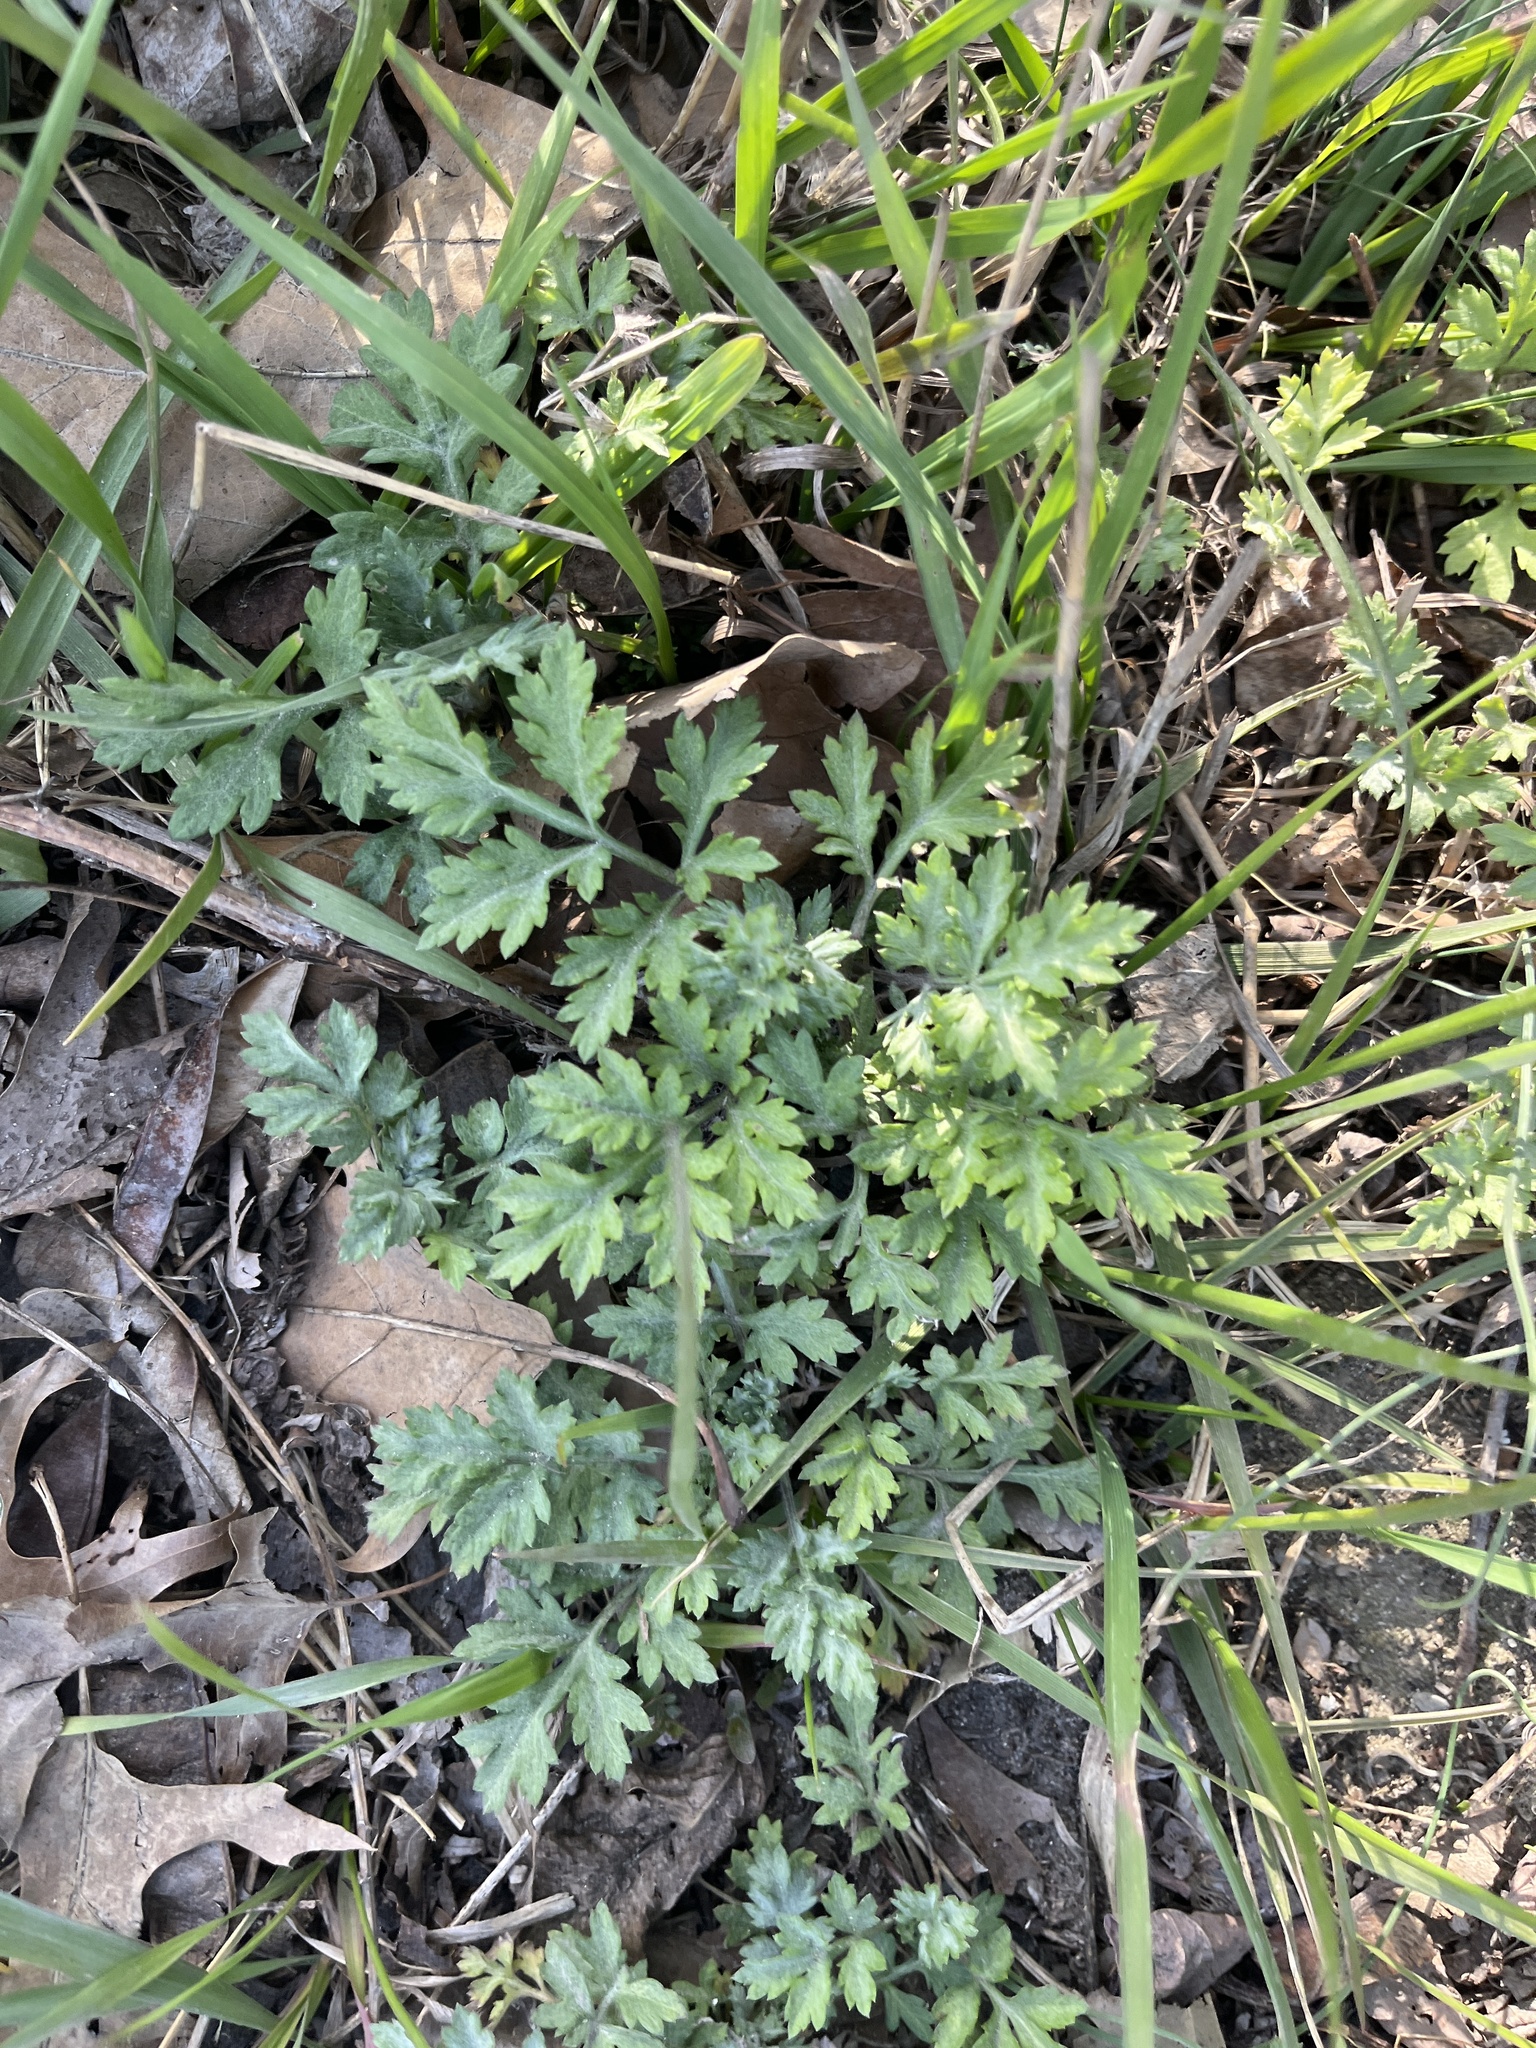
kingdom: Plantae
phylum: Tracheophyta
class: Magnoliopsida
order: Asterales
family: Asteraceae
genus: Artemisia
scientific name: Artemisia vulgaris
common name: Mugwort
